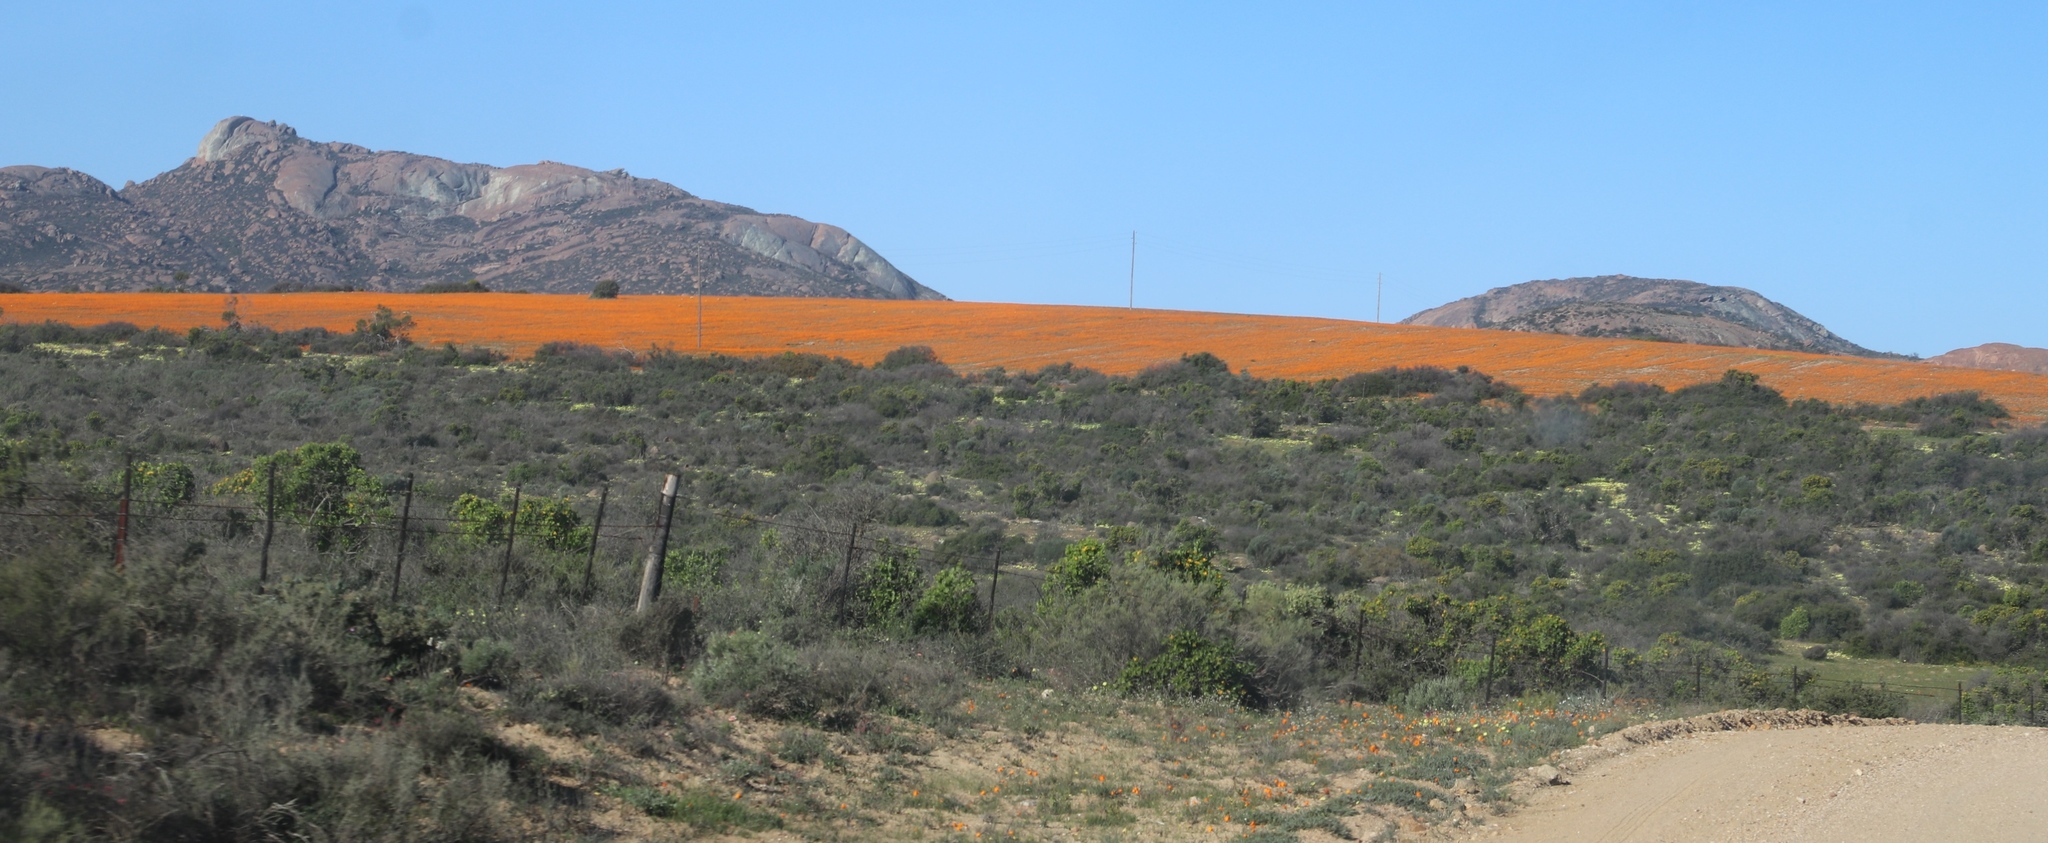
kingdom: Plantae
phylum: Tracheophyta
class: Magnoliopsida
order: Asterales
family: Asteraceae
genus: Dimorphotheca
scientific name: Dimorphotheca sinuata
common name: Glandular cape marigold
